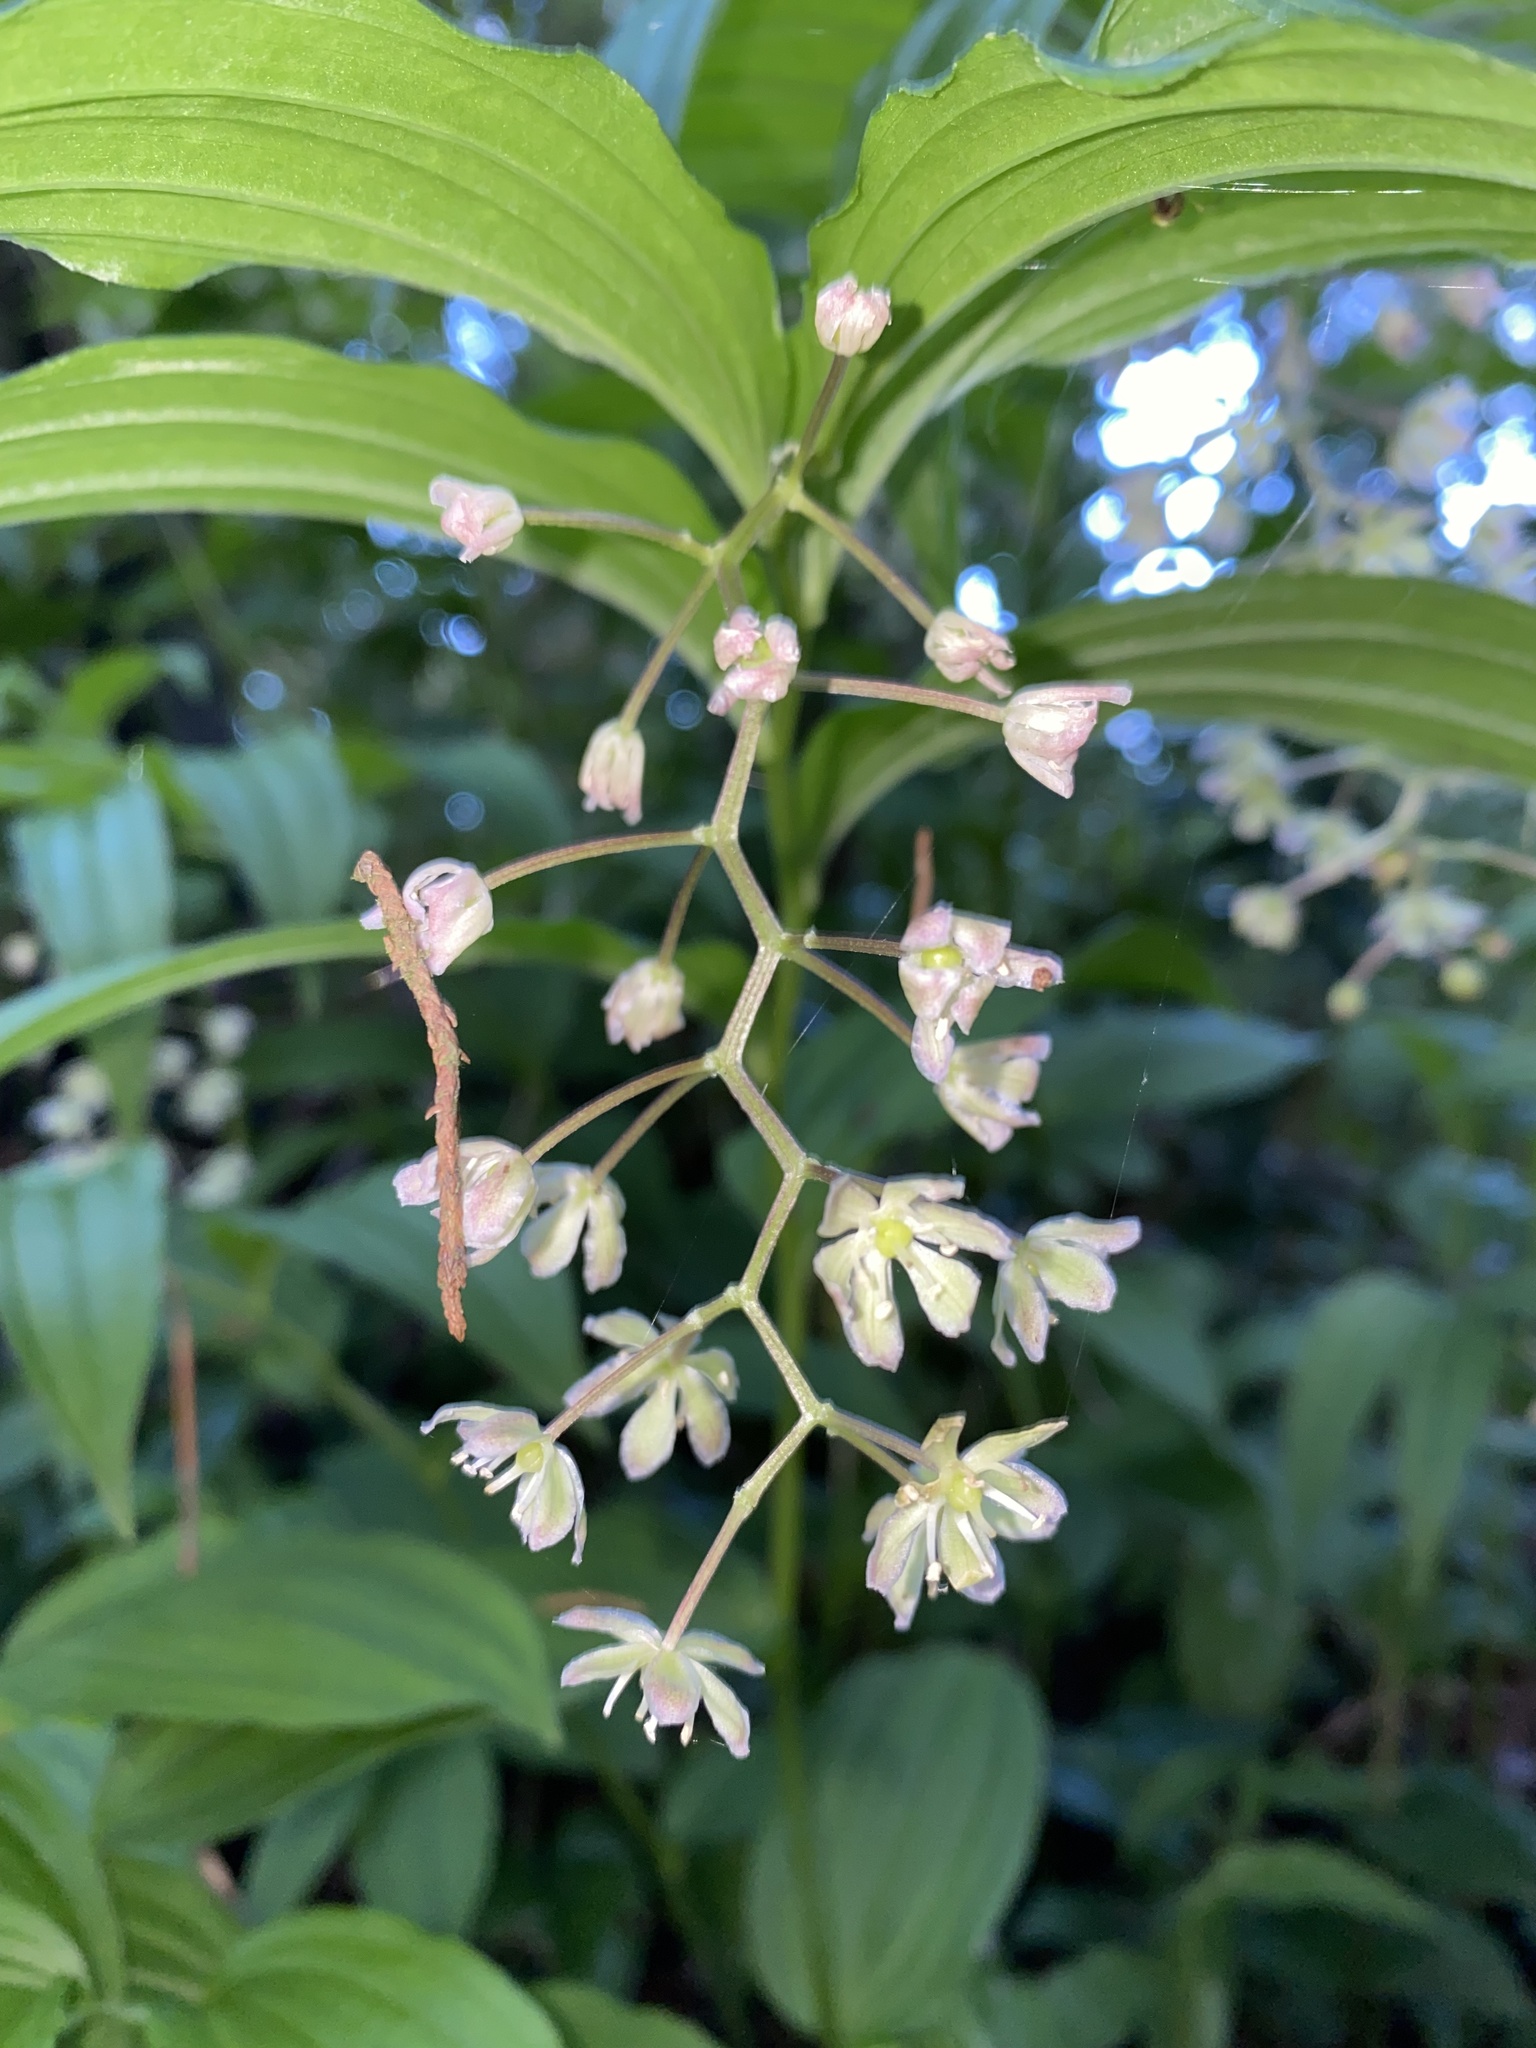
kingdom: Plantae
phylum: Tracheophyta
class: Liliopsida
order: Asparagales
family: Asparagaceae
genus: Maianthemum
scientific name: Maianthemum flexuosum
